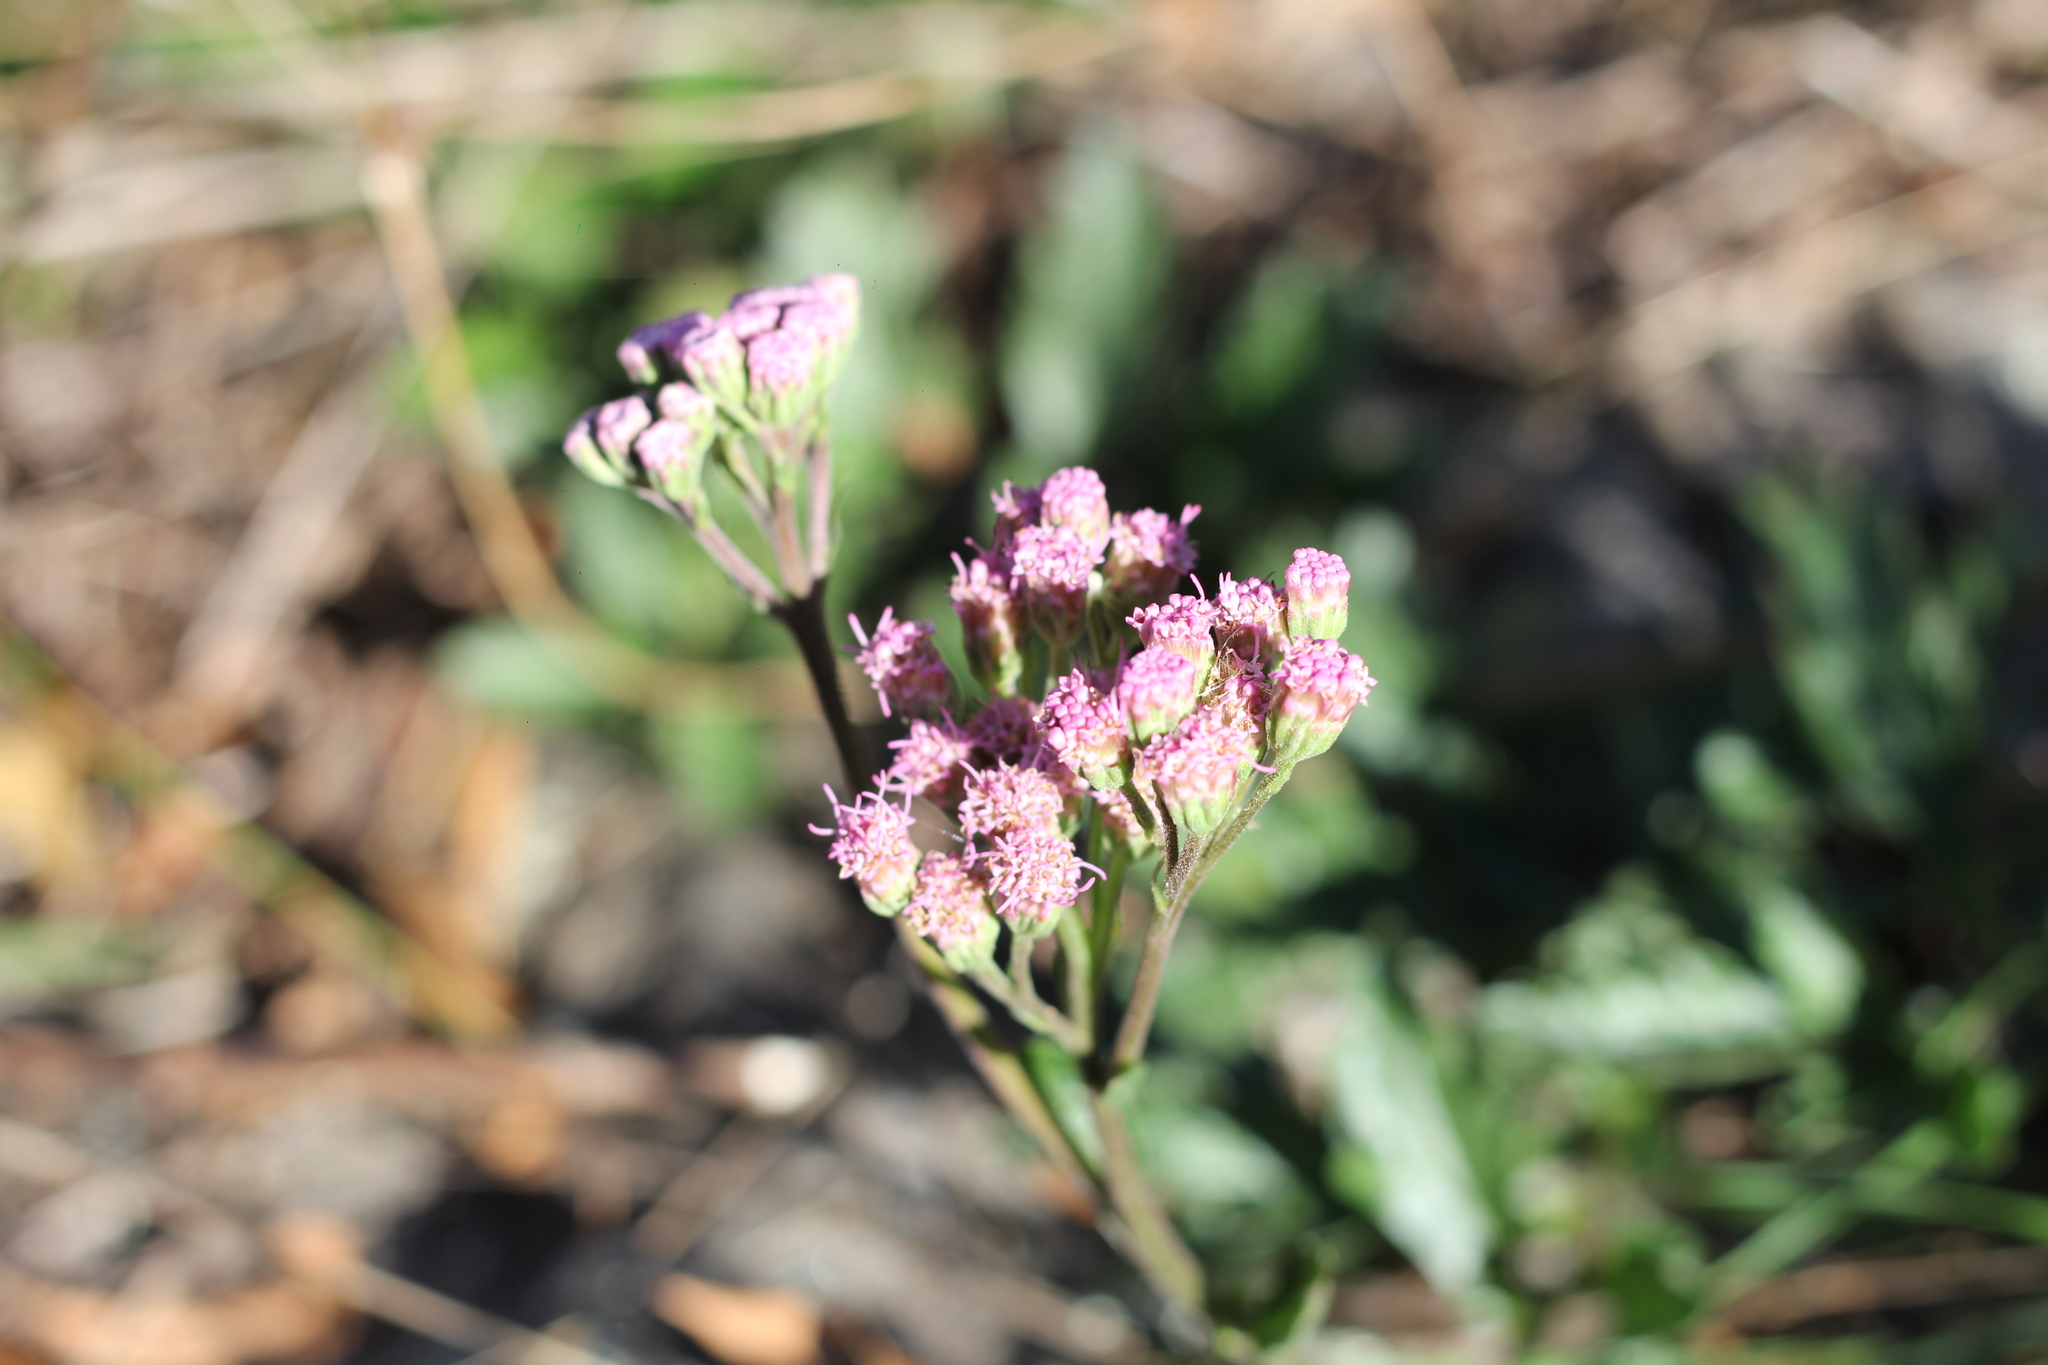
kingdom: Plantae
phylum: Tracheophyta
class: Magnoliopsida
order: Asterales
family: Asteraceae
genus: Gyptis
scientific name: Gyptis artemisifolia
